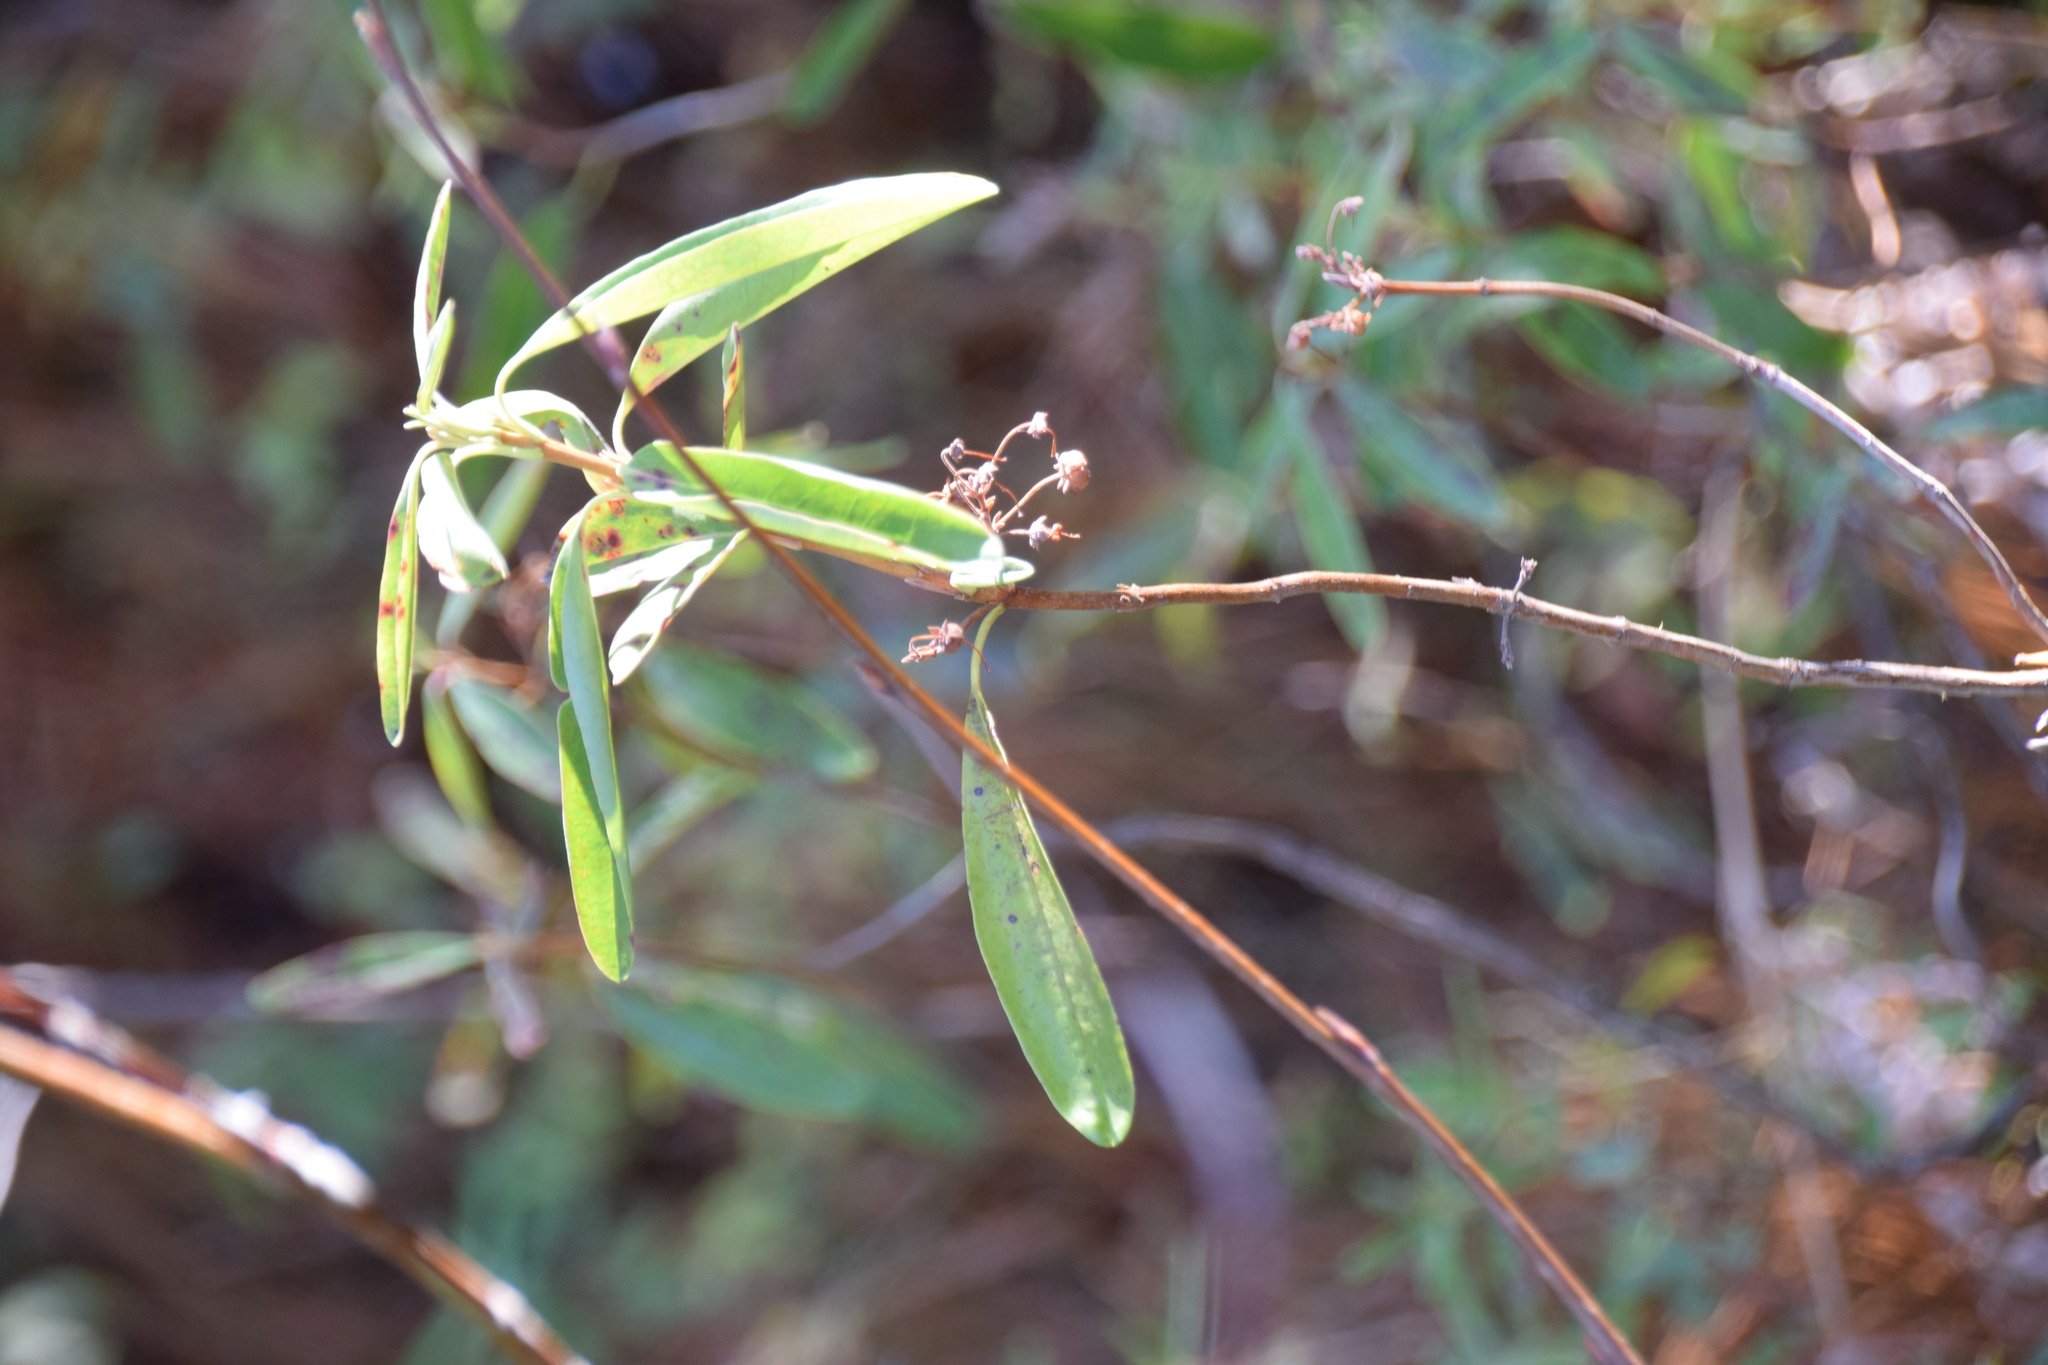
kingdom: Plantae
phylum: Tracheophyta
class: Magnoliopsida
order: Ericales
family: Ericaceae
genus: Kalmia
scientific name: Kalmia angustifolia
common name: Sheep-laurel
